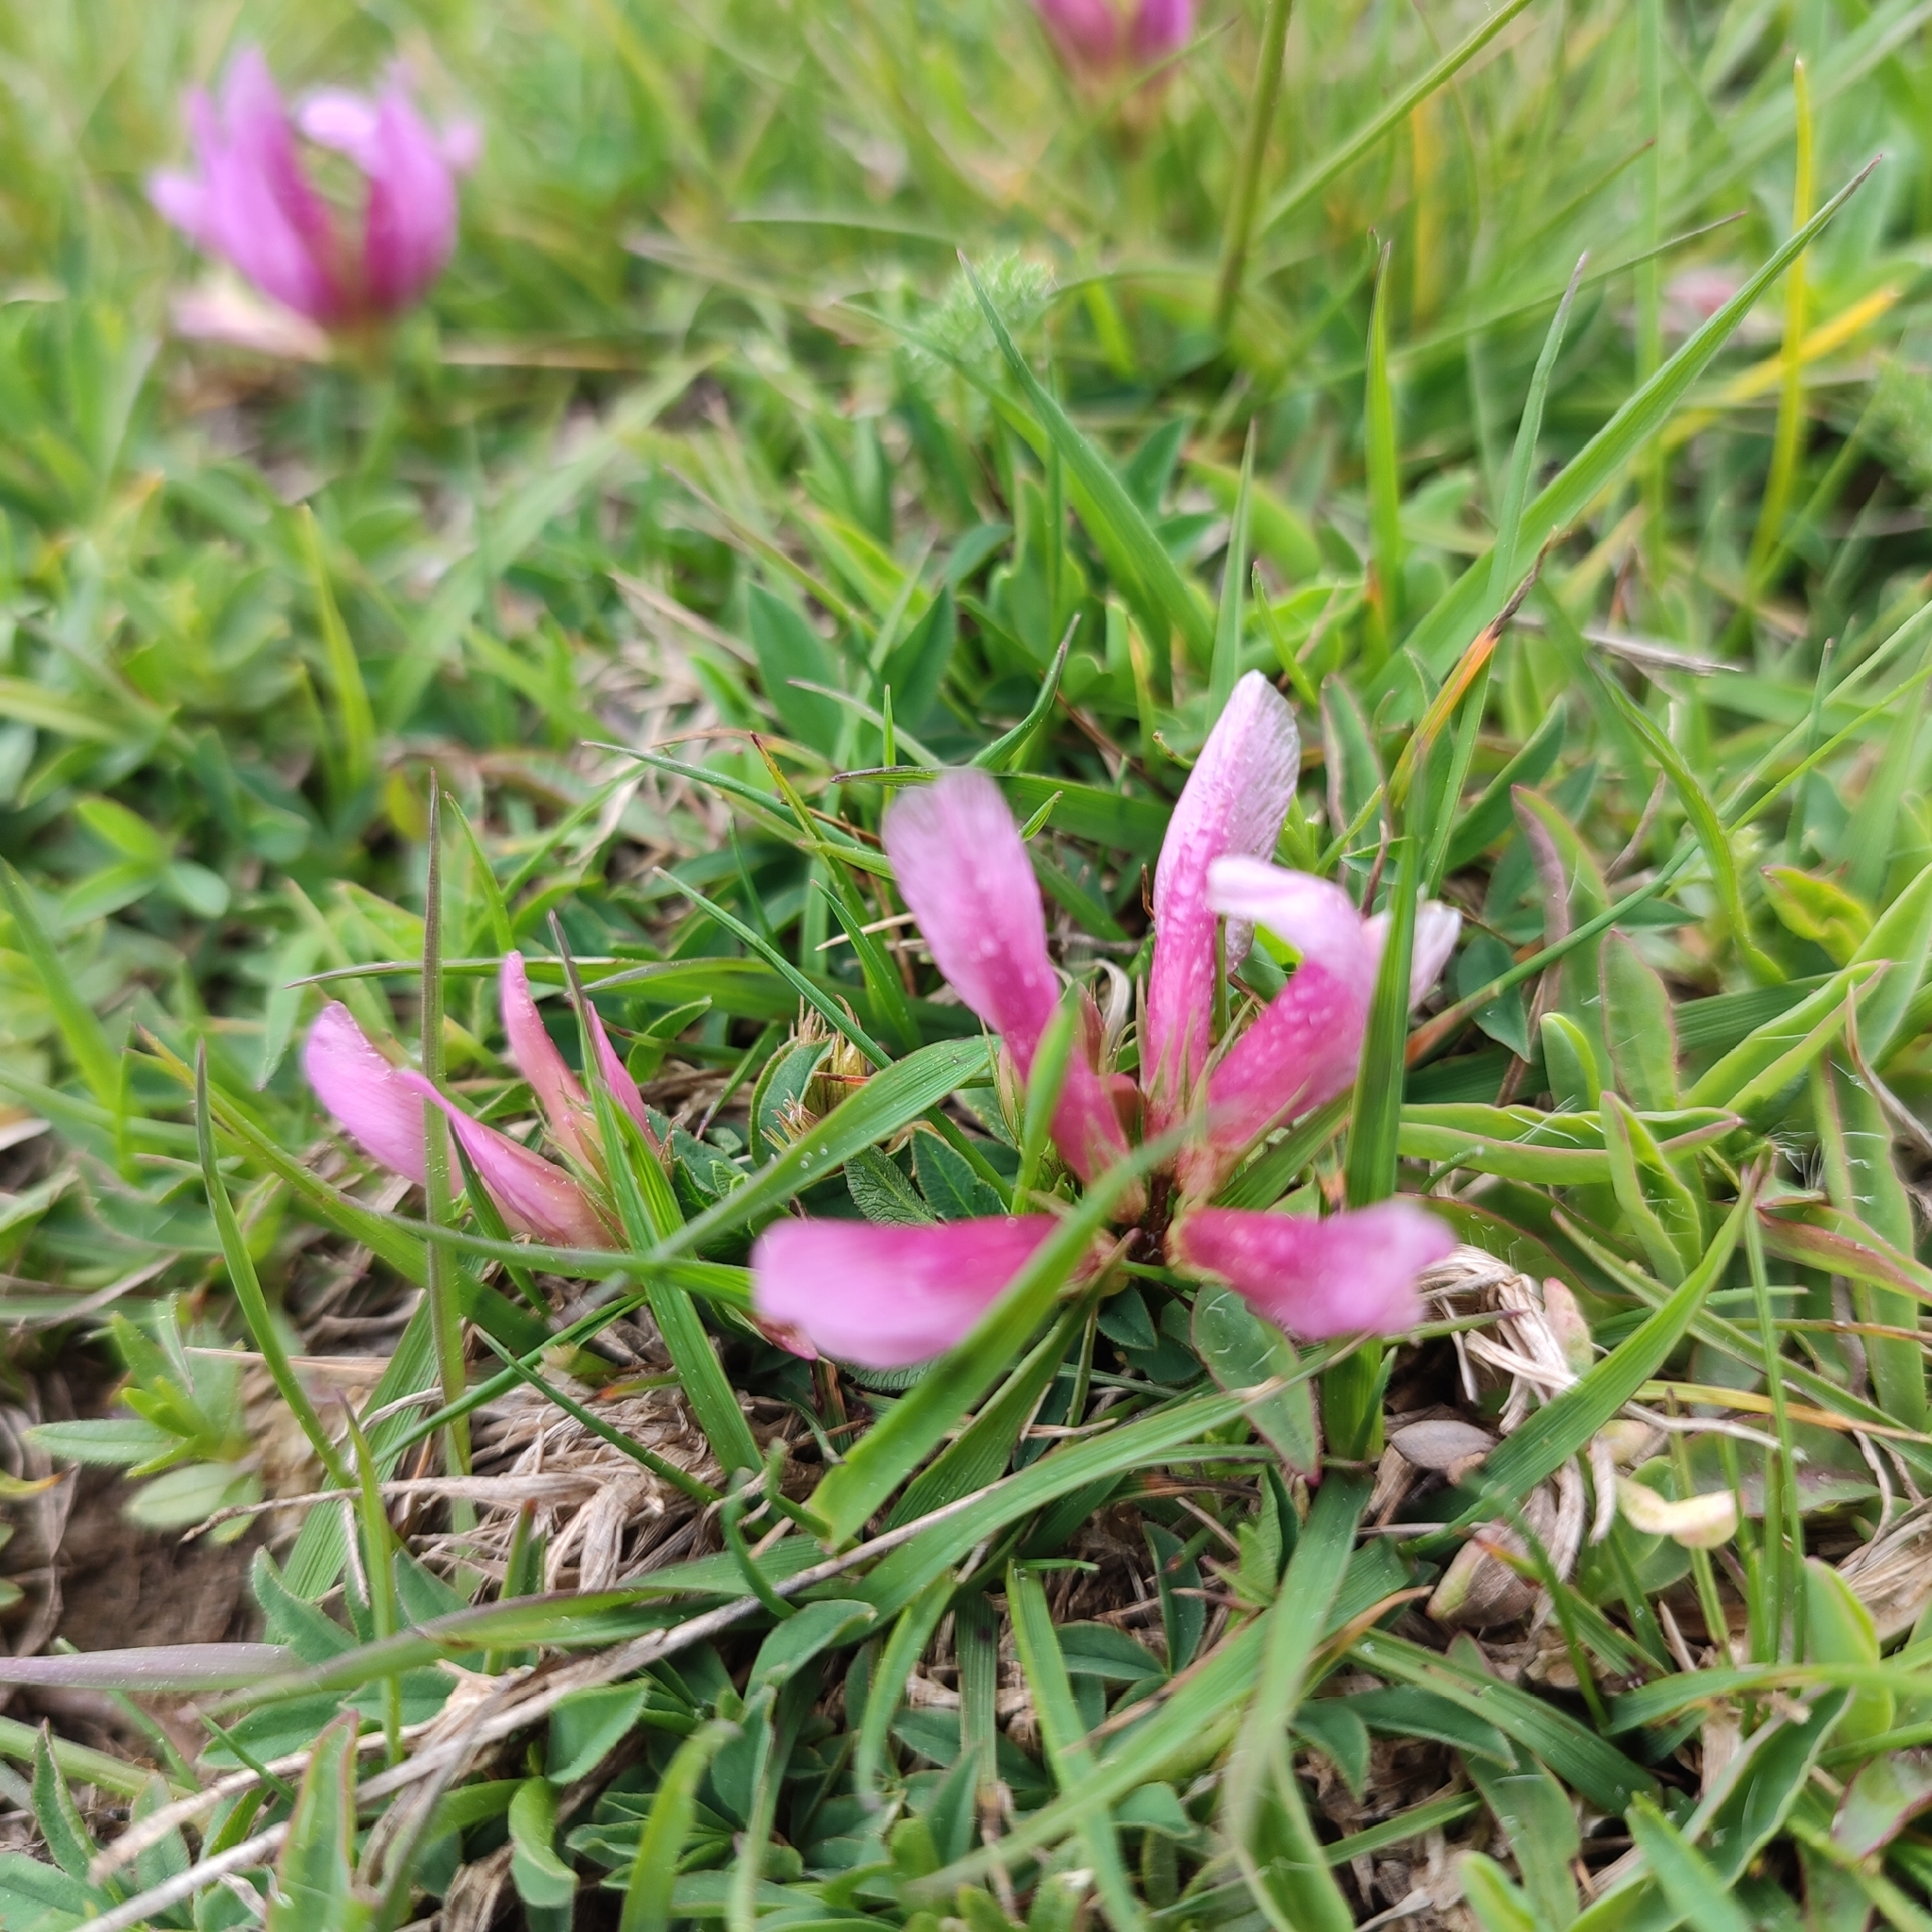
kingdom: Plantae
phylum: Tracheophyta
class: Magnoliopsida
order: Fabales
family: Fabaceae
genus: Trifolium
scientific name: Trifolium alpinum
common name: Alpine clover
